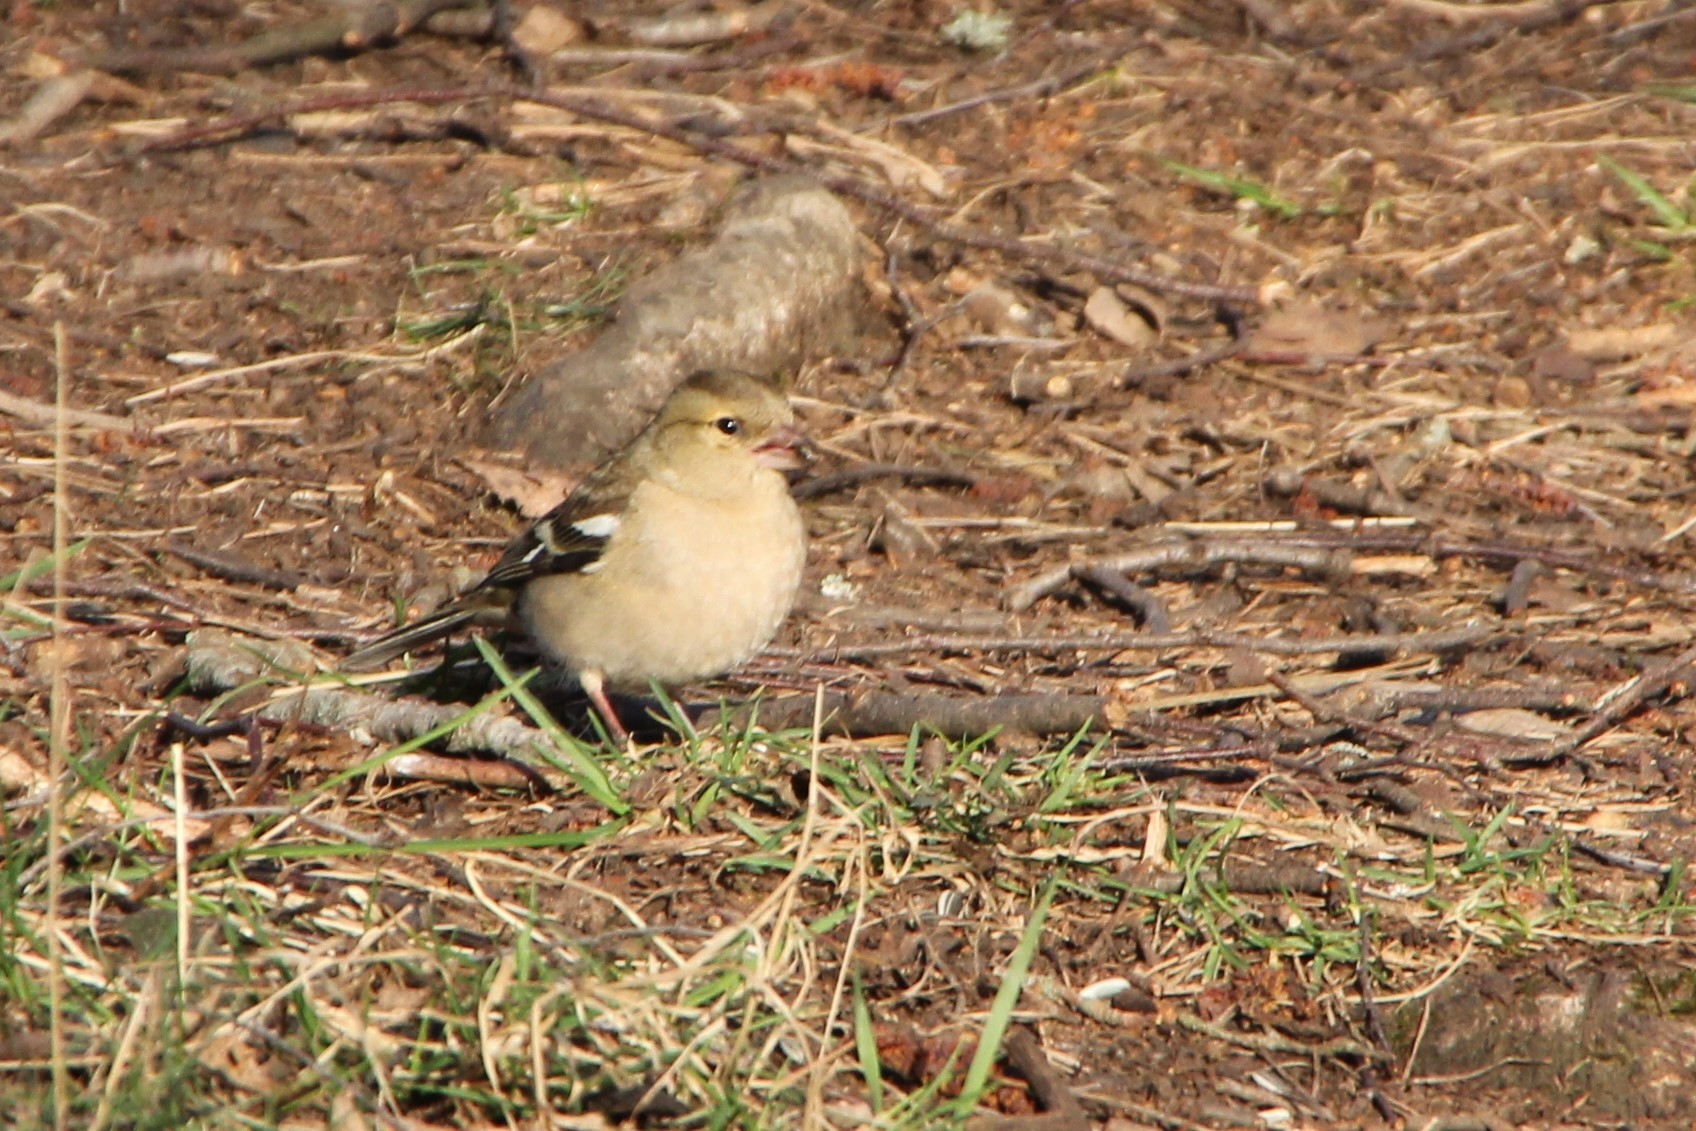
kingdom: Animalia
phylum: Chordata
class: Aves
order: Passeriformes
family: Fringillidae
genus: Fringilla
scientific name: Fringilla coelebs
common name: Common chaffinch
